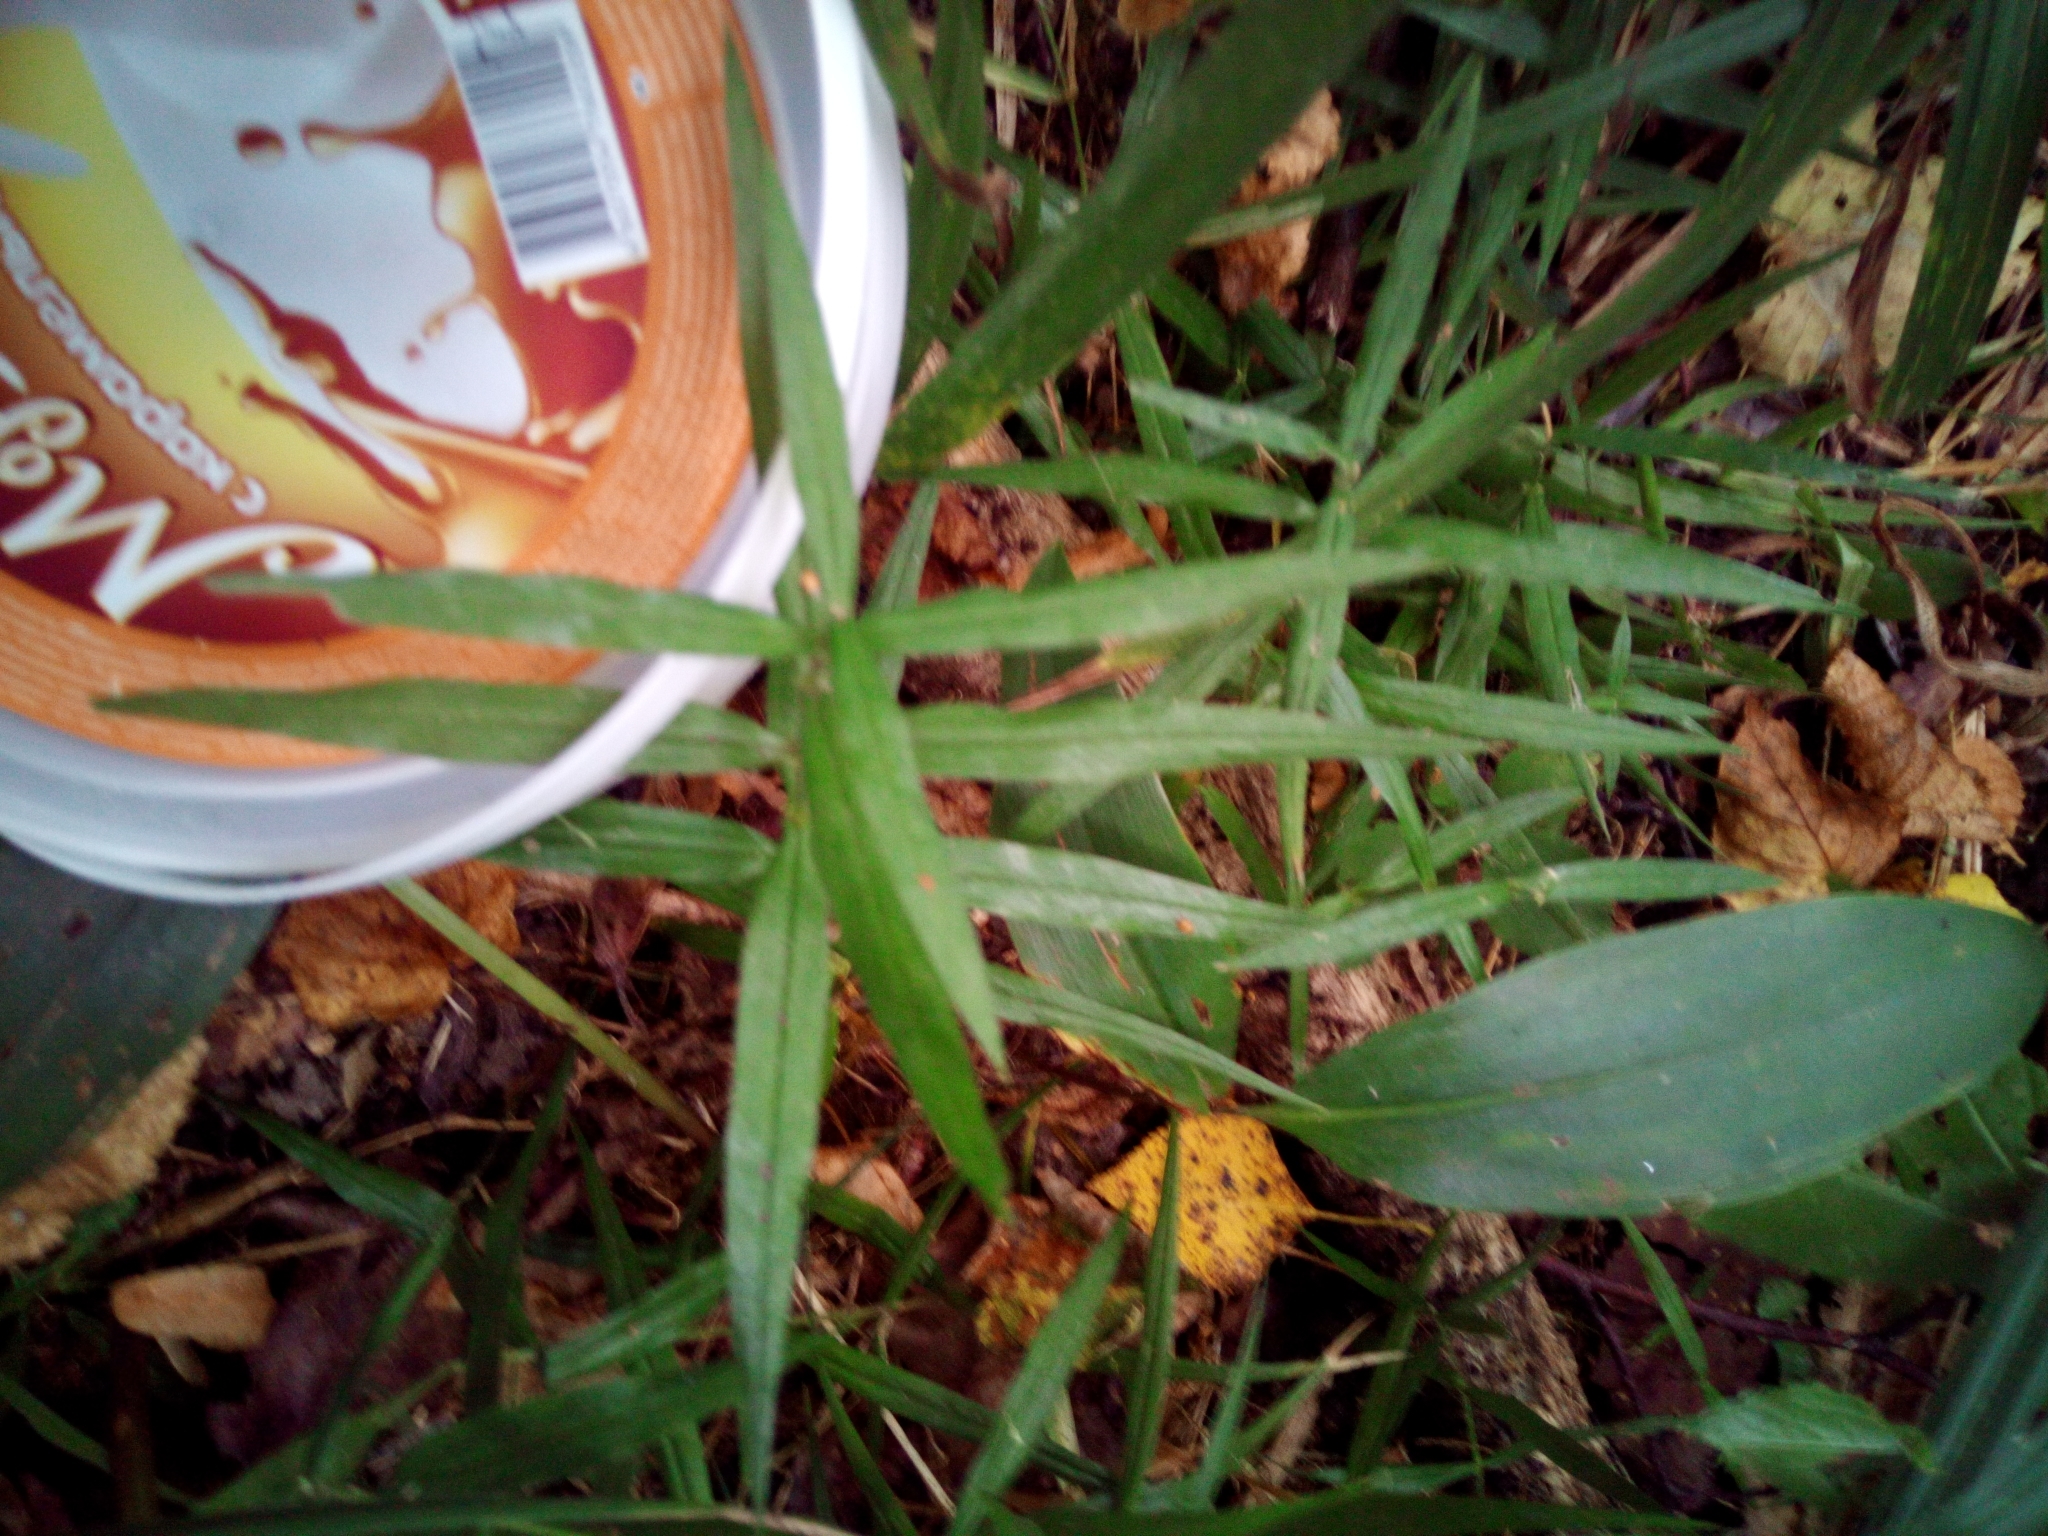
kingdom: Plantae
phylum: Tracheophyta
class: Magnoliopsida
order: Caryophyllales
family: Caryophyllaceae
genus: Rabelera
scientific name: Rabelera holostea
